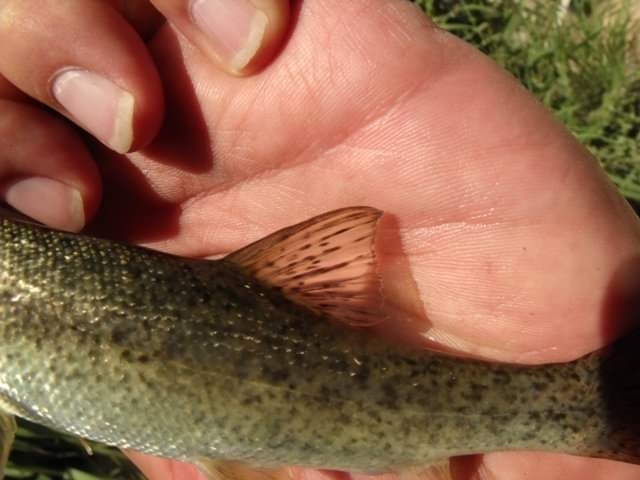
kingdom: Animalia
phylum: Chordata
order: Cypriniformes
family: Cyprinidae
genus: Barbus
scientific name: Barbus tyberinus
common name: Horse barbel
